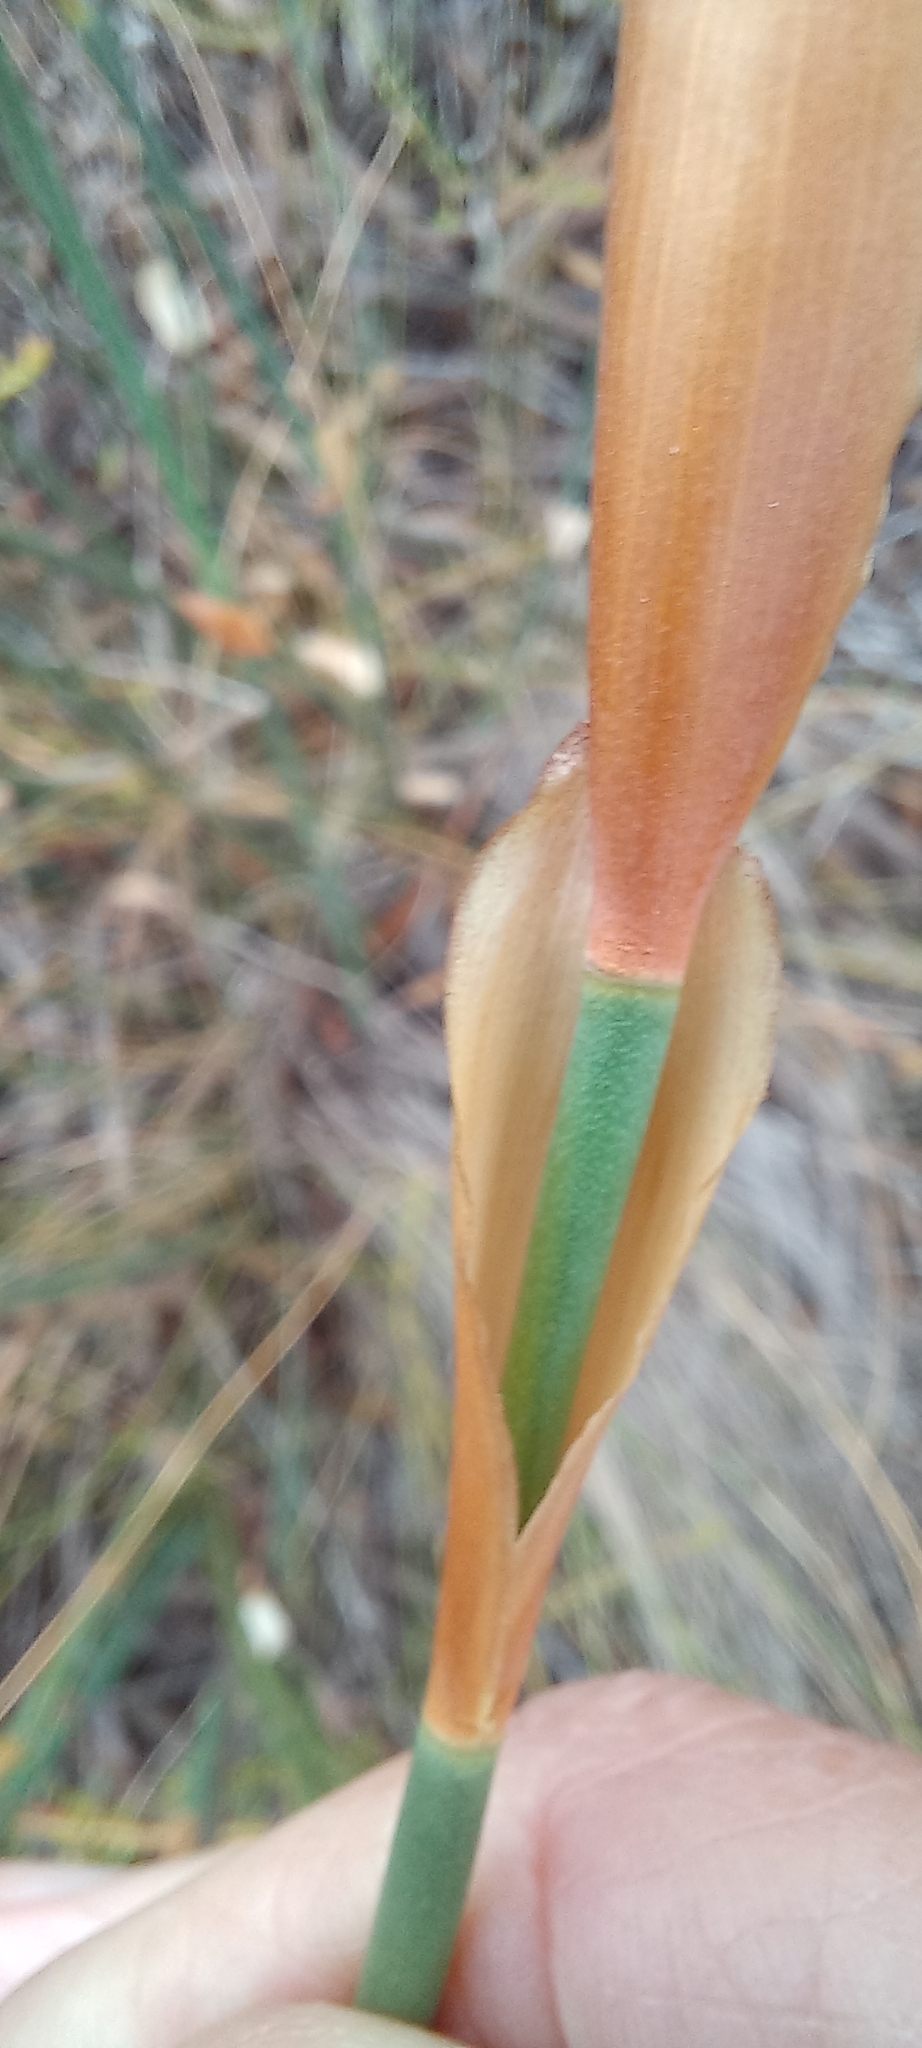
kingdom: Plantae
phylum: Tracheophyta
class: Liliopsida
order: Poales
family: Restionaceae
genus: Elegia
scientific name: Elegia persistens
